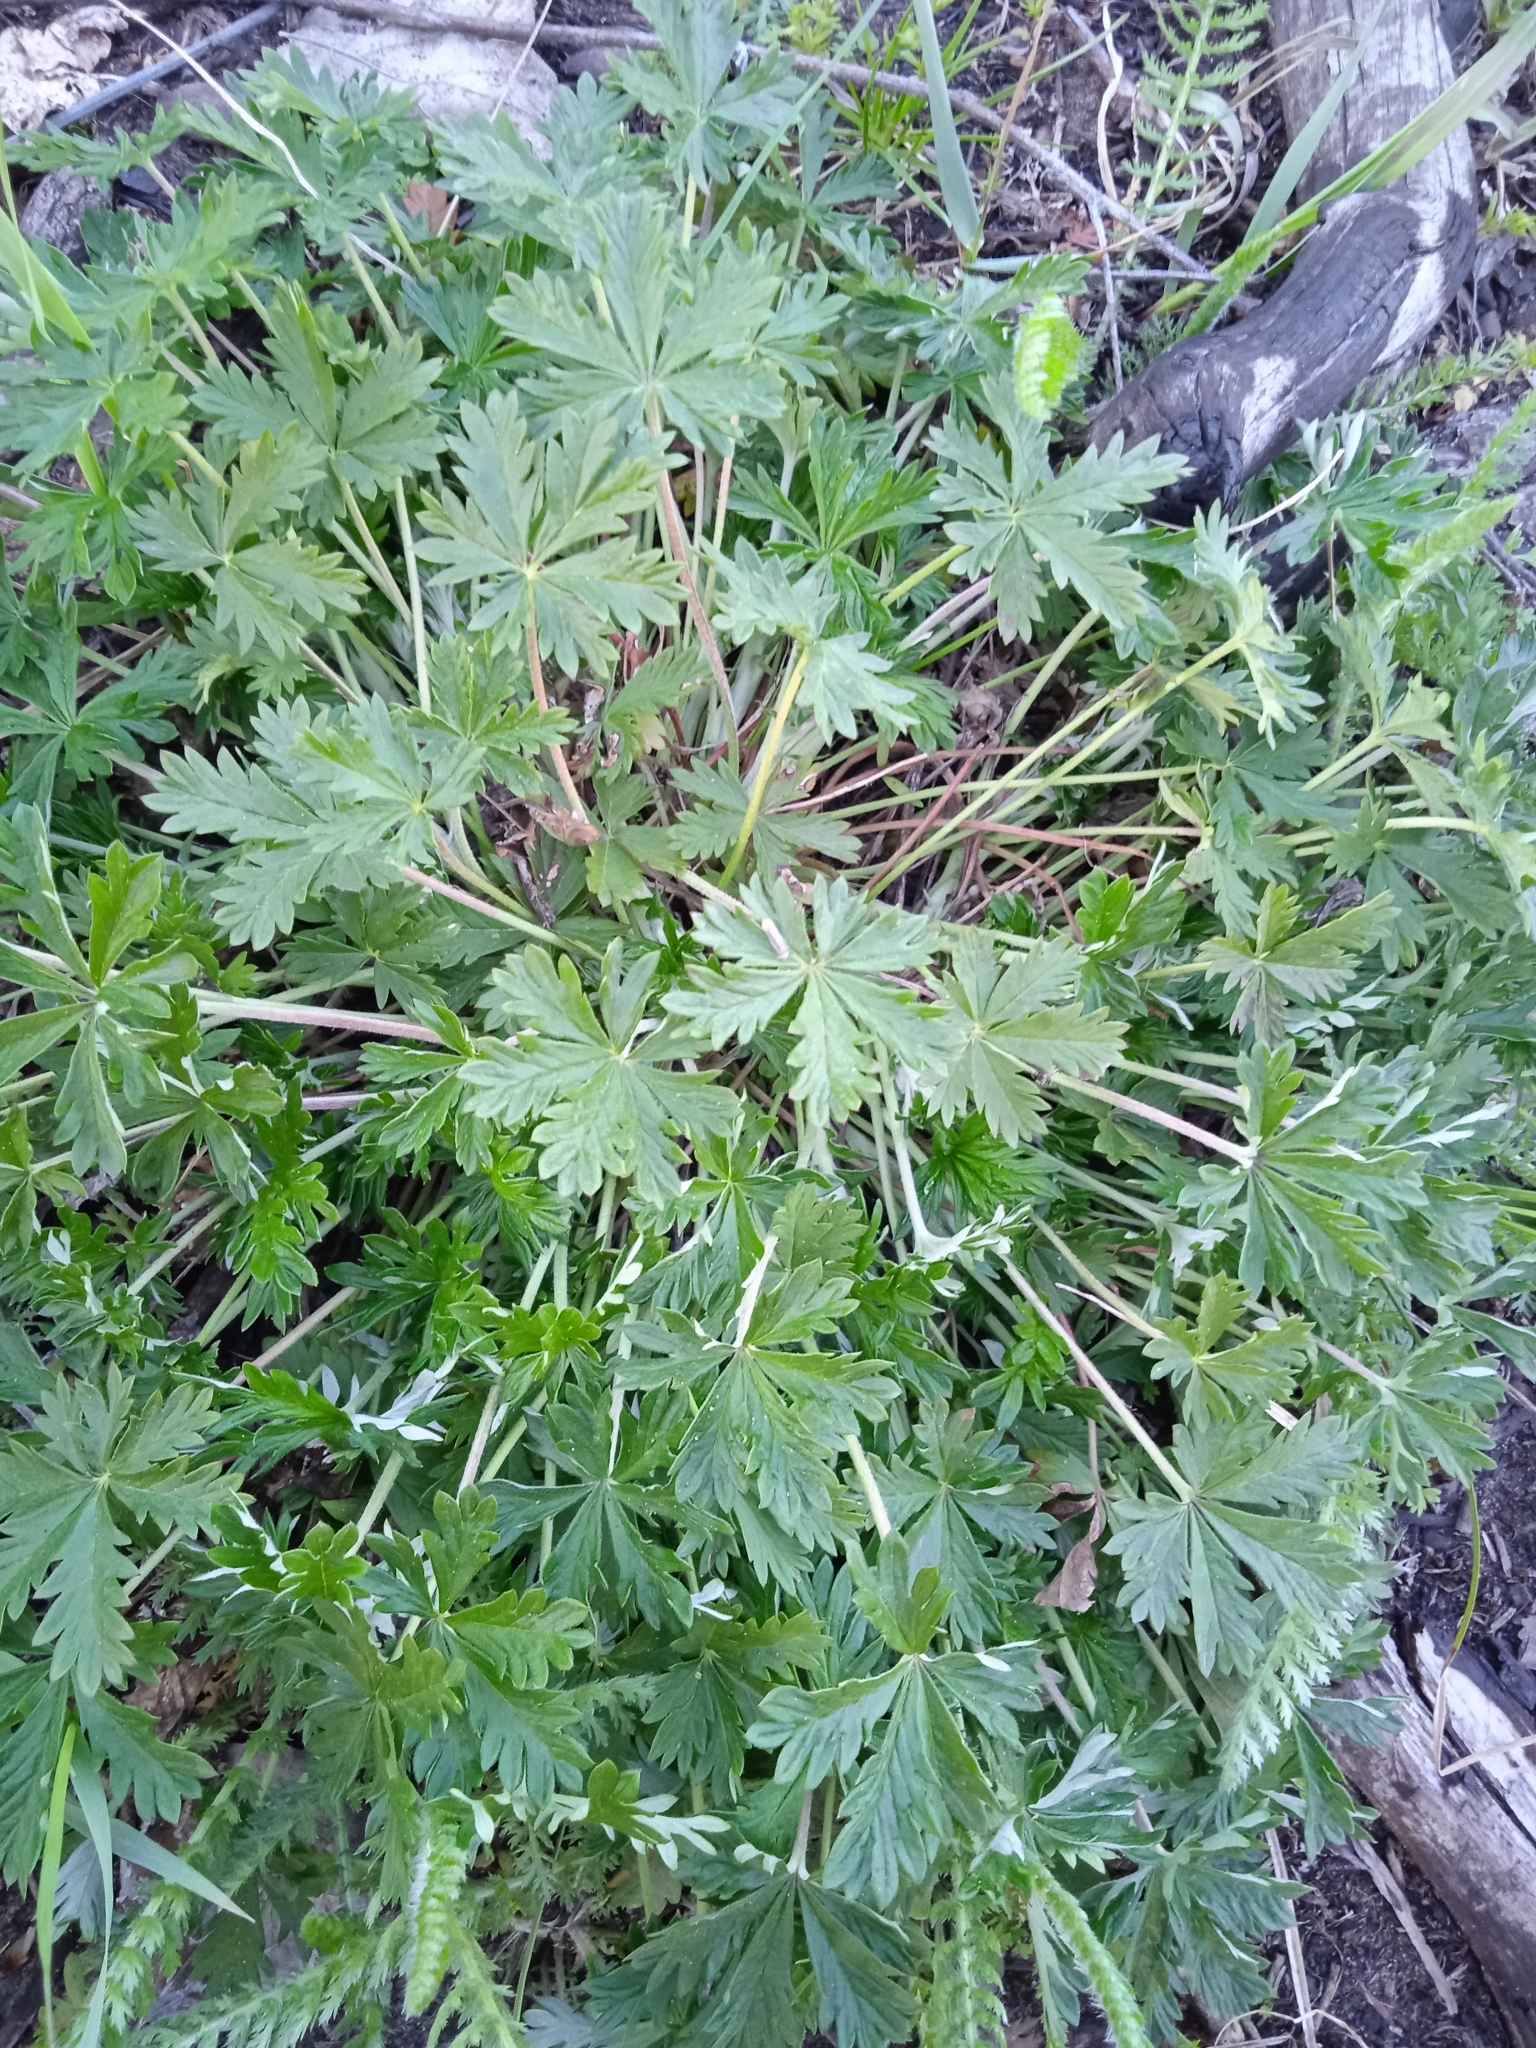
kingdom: Plantae
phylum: Tracheophyta
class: Magnoliopsida
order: Rosales
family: Rosaceae
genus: Potentilla
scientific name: Potentilla argentea
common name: Hoary cinquefoil
